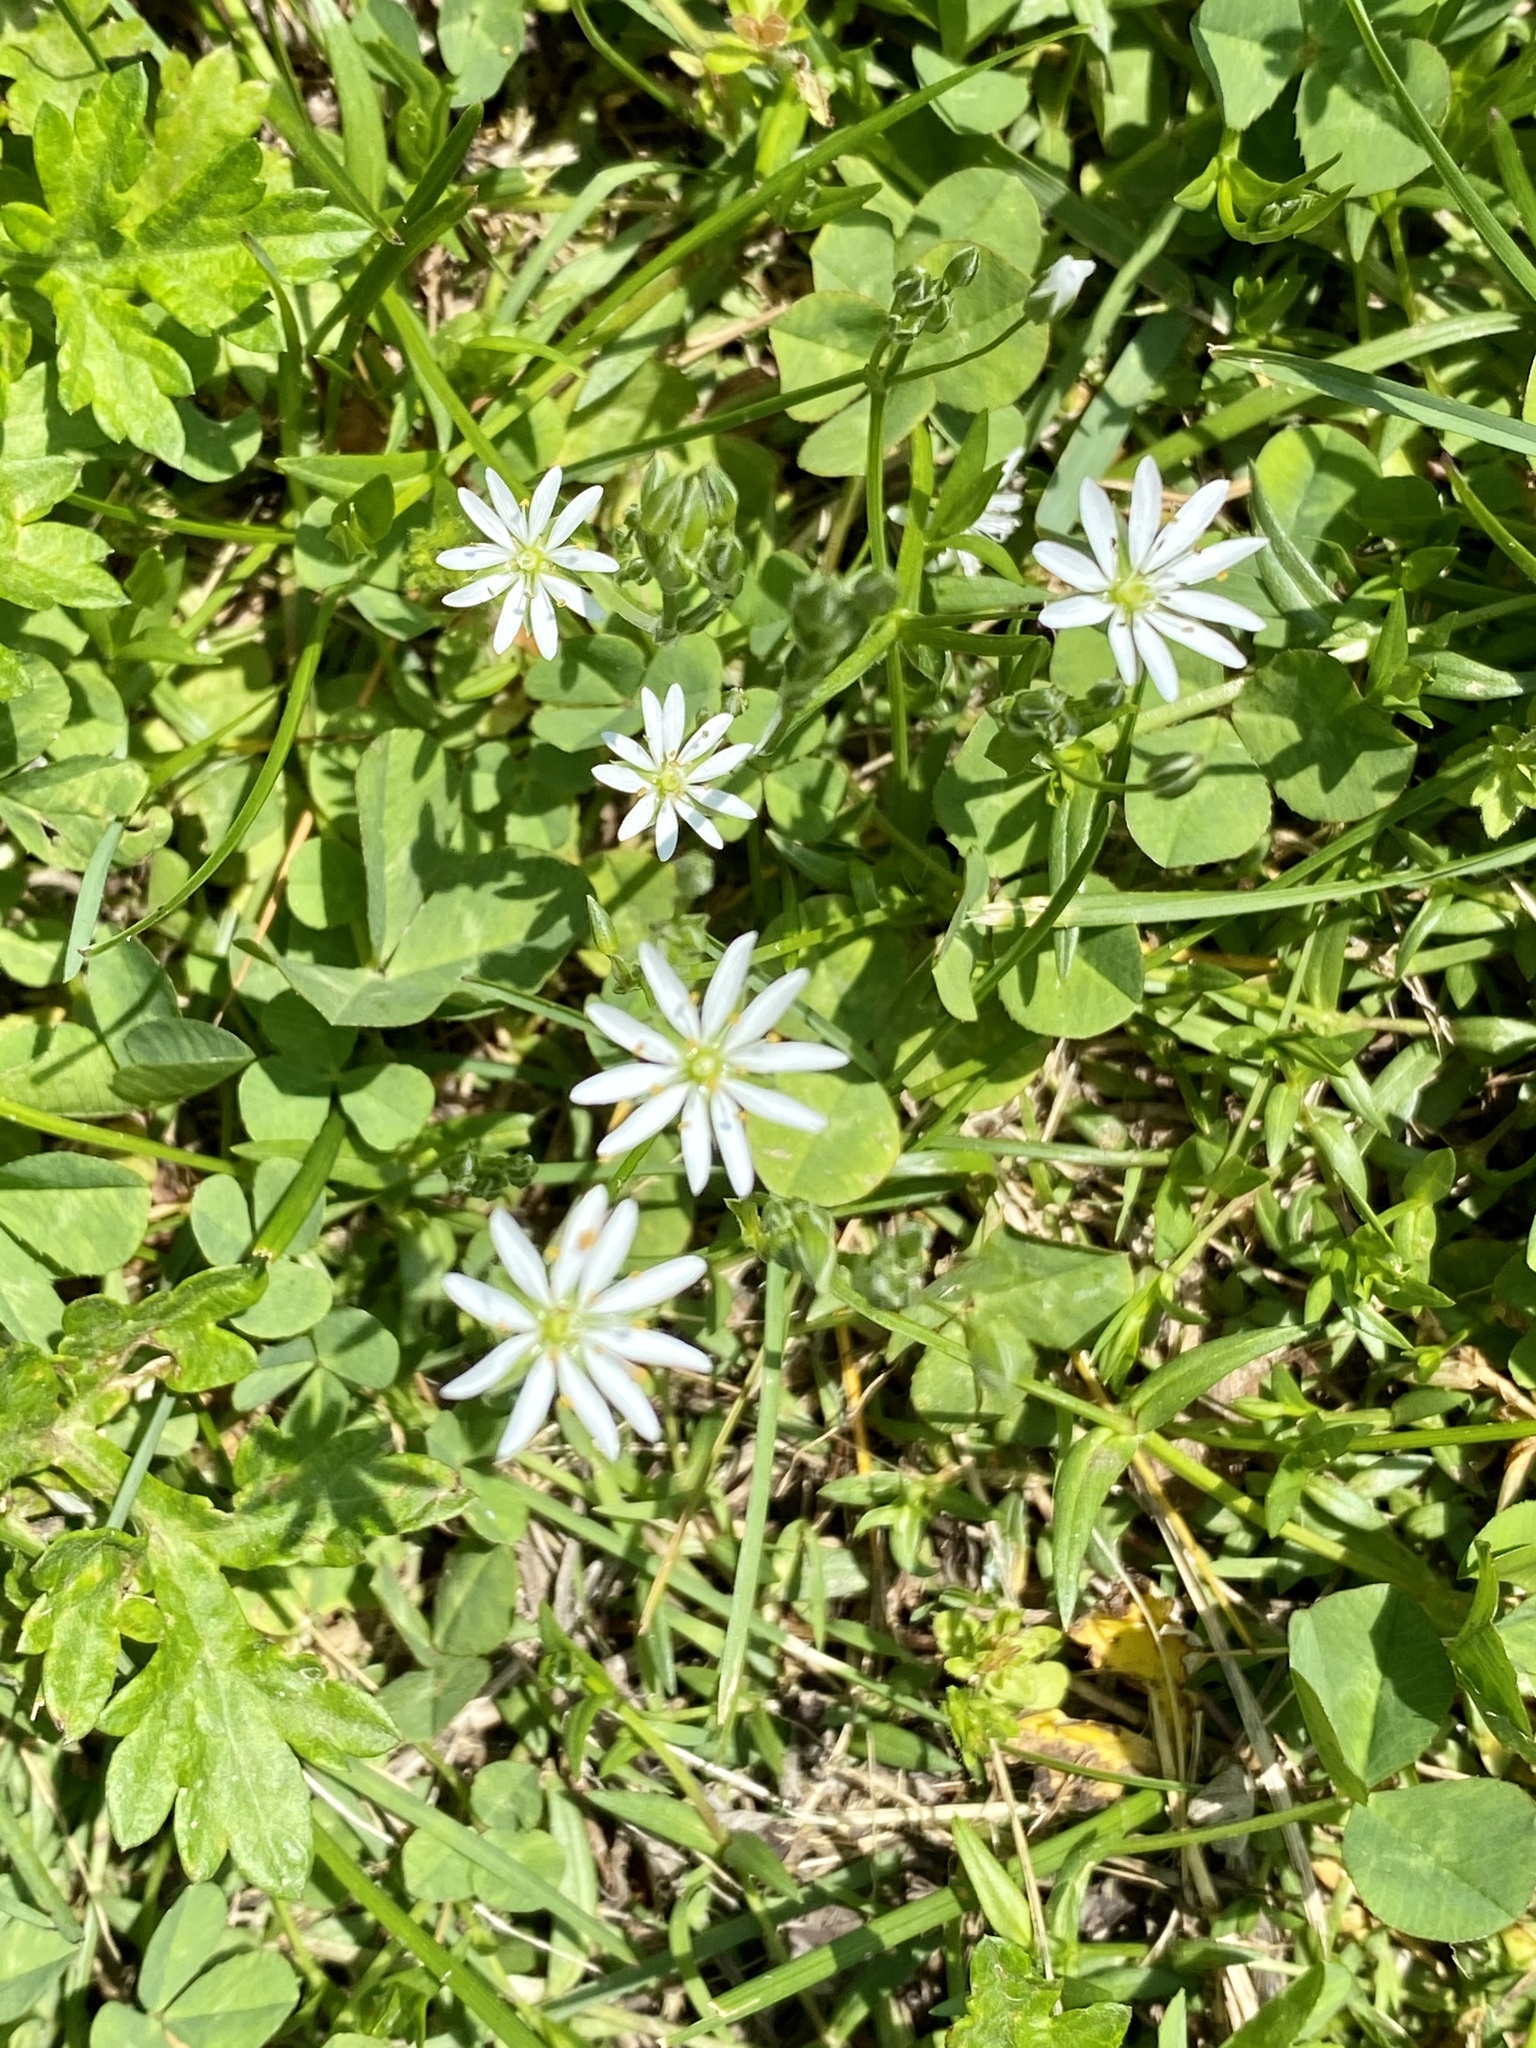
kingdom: Plantae
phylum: Tracheophyta
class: Magnoliopsida
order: Caryophyllales
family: Caryophyllaceae
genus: Stellaria
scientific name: Stellaria graminea
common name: Grass-like starwort
